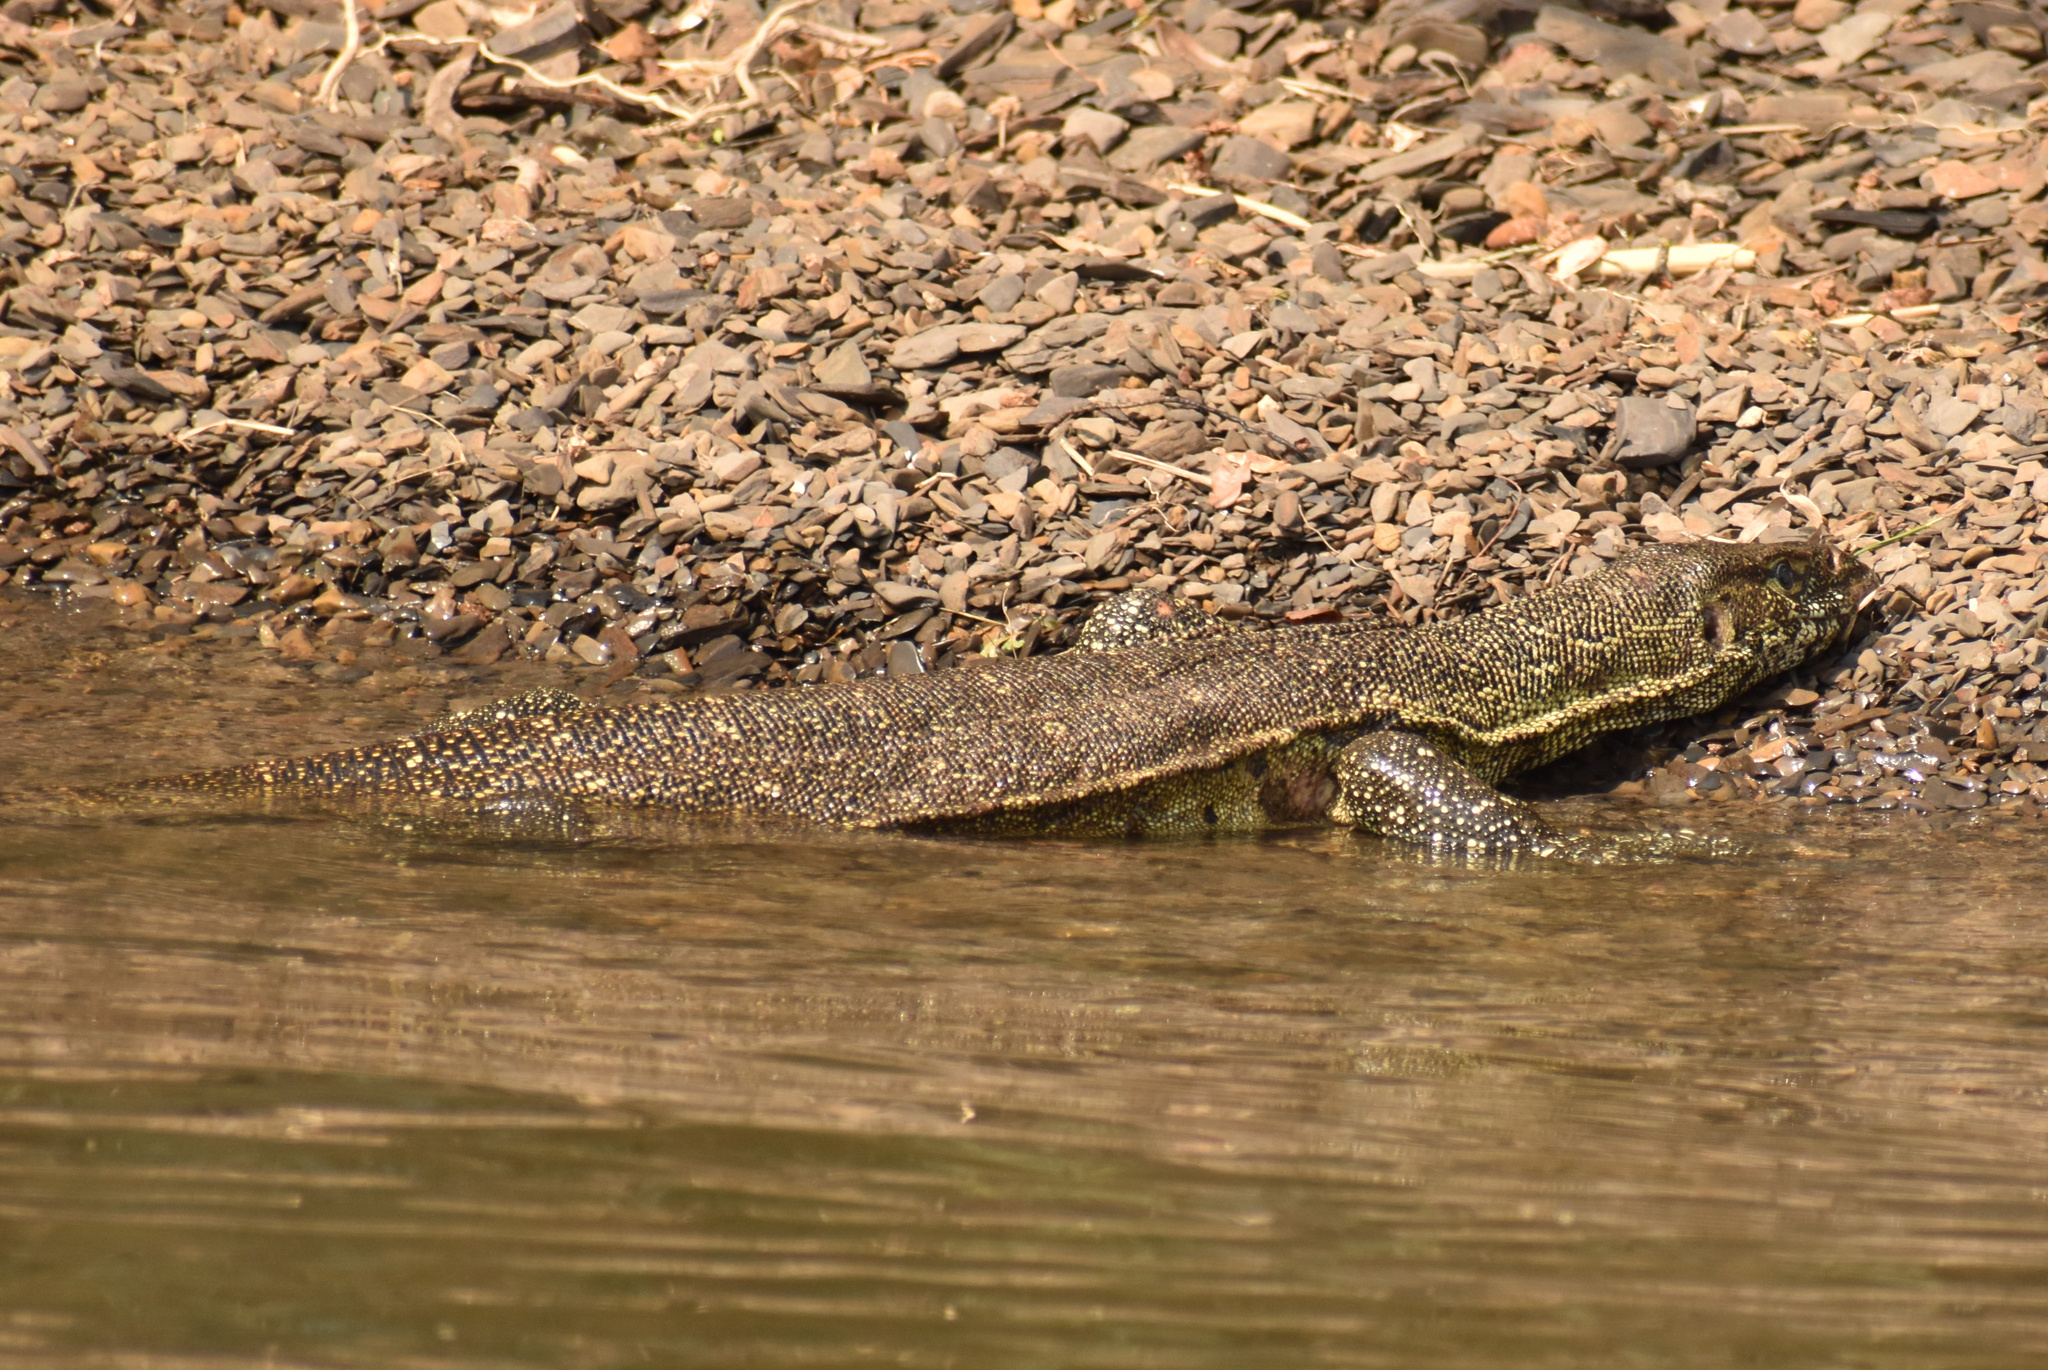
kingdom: Animalia
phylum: Chordata
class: Squamata
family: Varanidae
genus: Varanus
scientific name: Varanus niloticus
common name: Nile monitor
